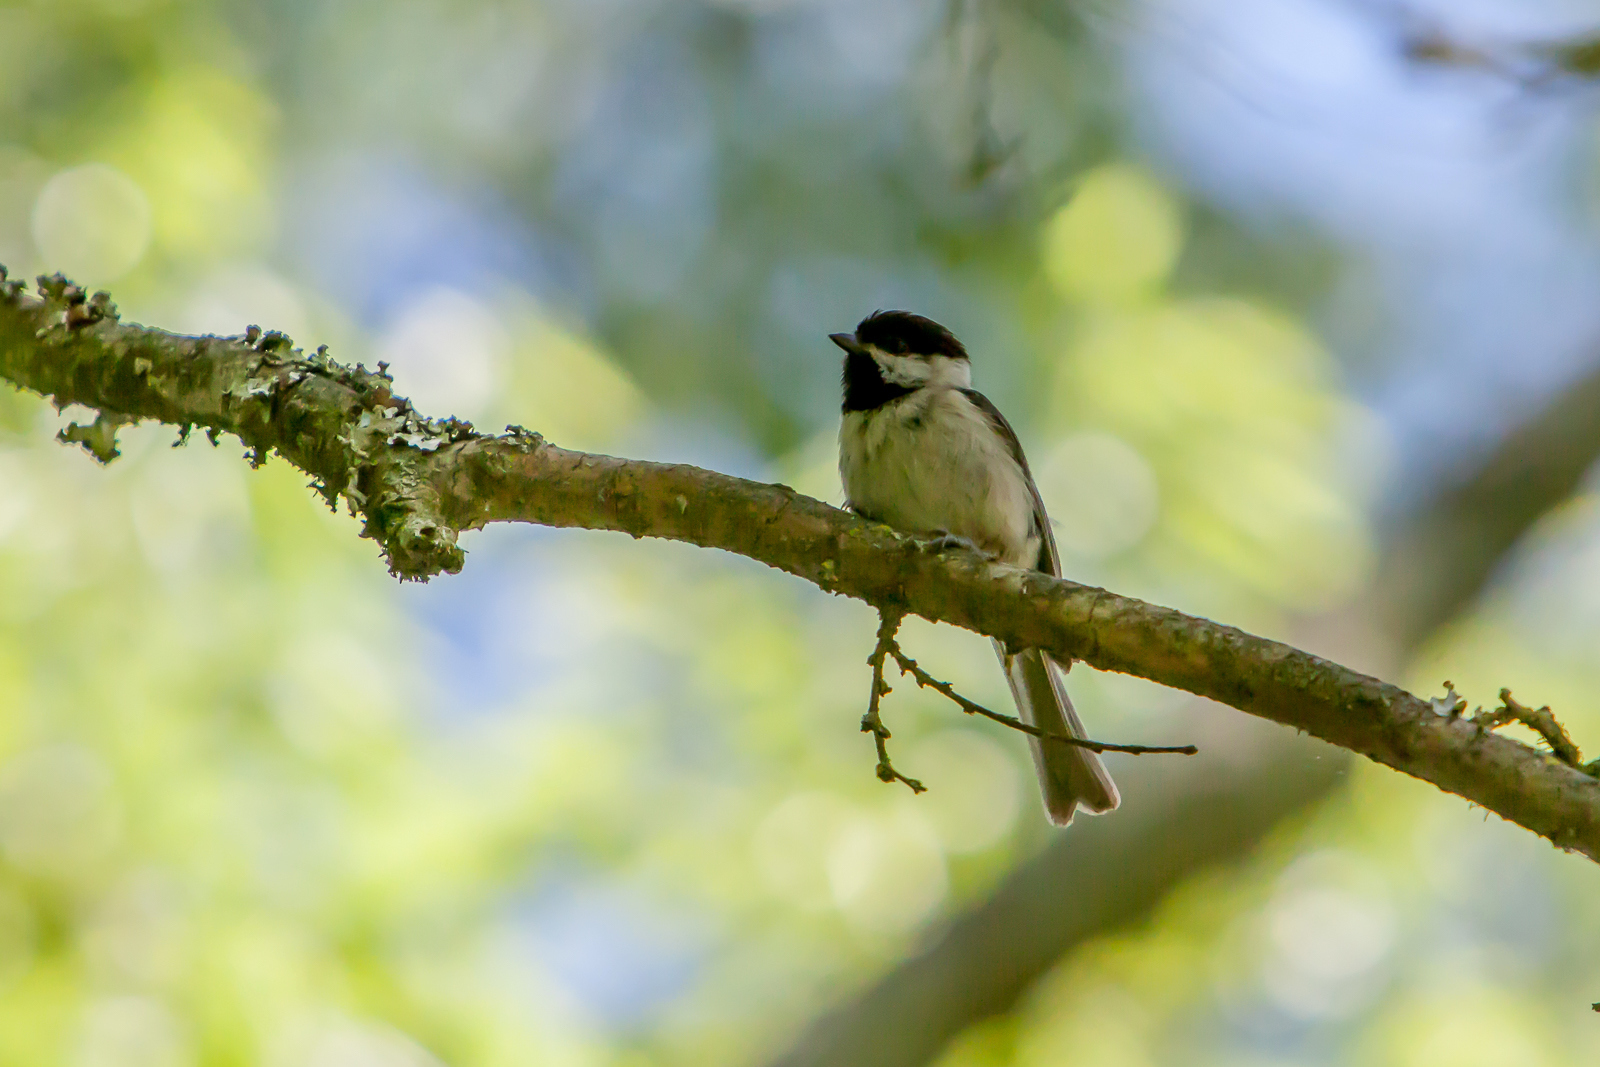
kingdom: Animalia
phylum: Chordata
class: Aves
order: Passeriformes
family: Paridae
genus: Poecile
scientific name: Poecile carolinensis
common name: Carolina chickadee
